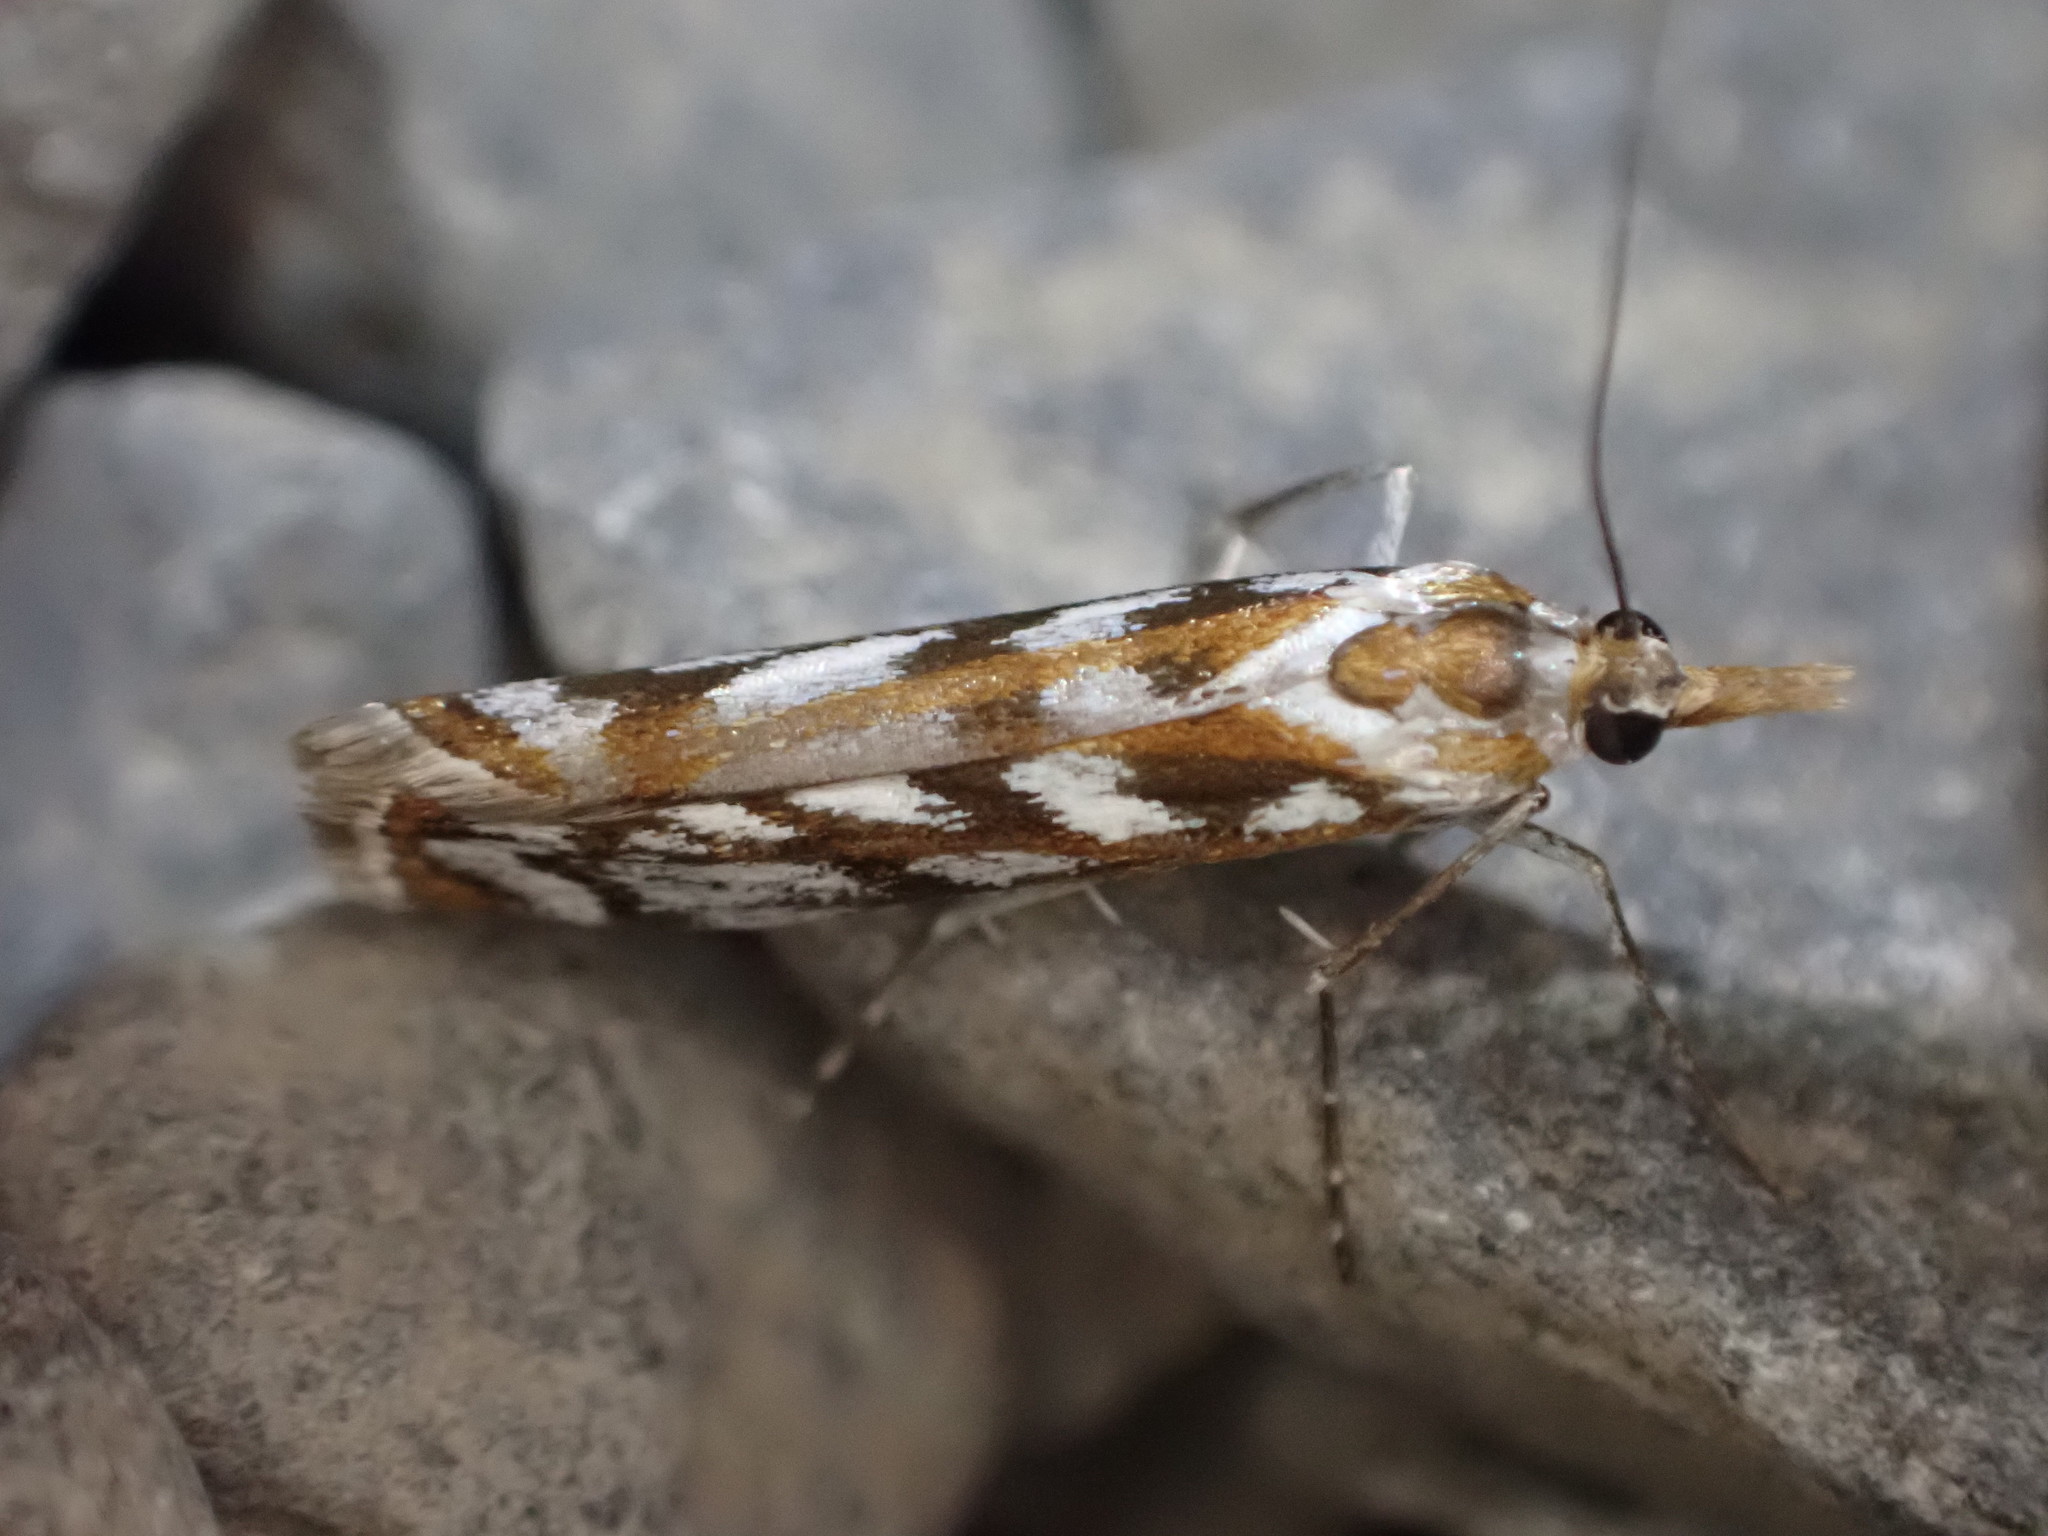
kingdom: Animalia
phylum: Arthropoda
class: Insecta
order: Lepidoptera
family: Crambidae
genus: Orocrambus
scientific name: Orocrambus xanthogrammus
